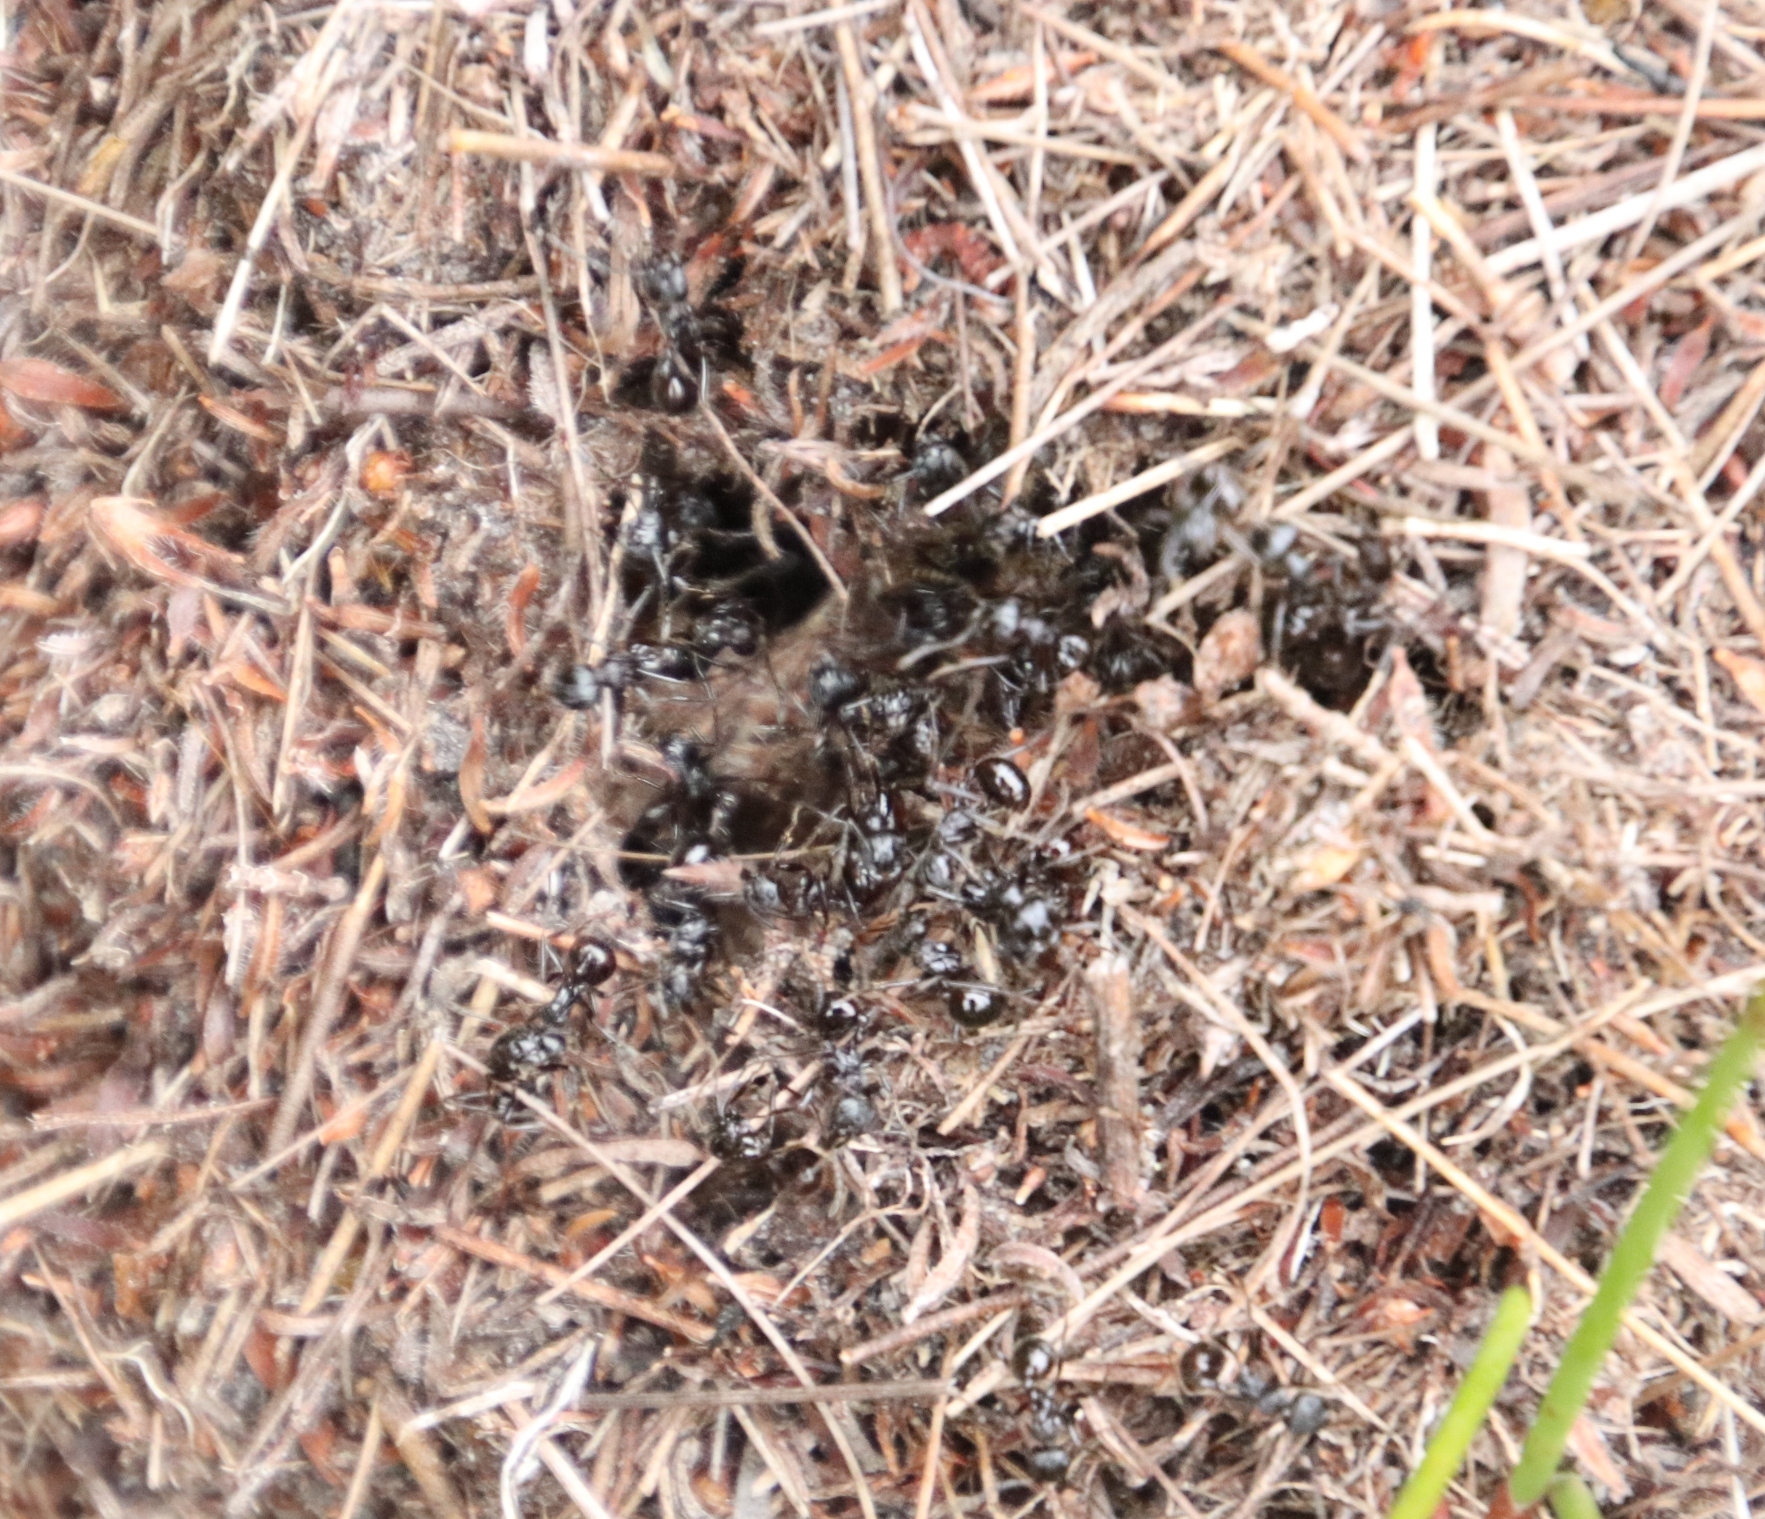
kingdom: Animalia
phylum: Arthropoda
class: Insecta
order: Hymenoptera
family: Formicidae
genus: Myrmicaria
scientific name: Myrmicaria nigra
